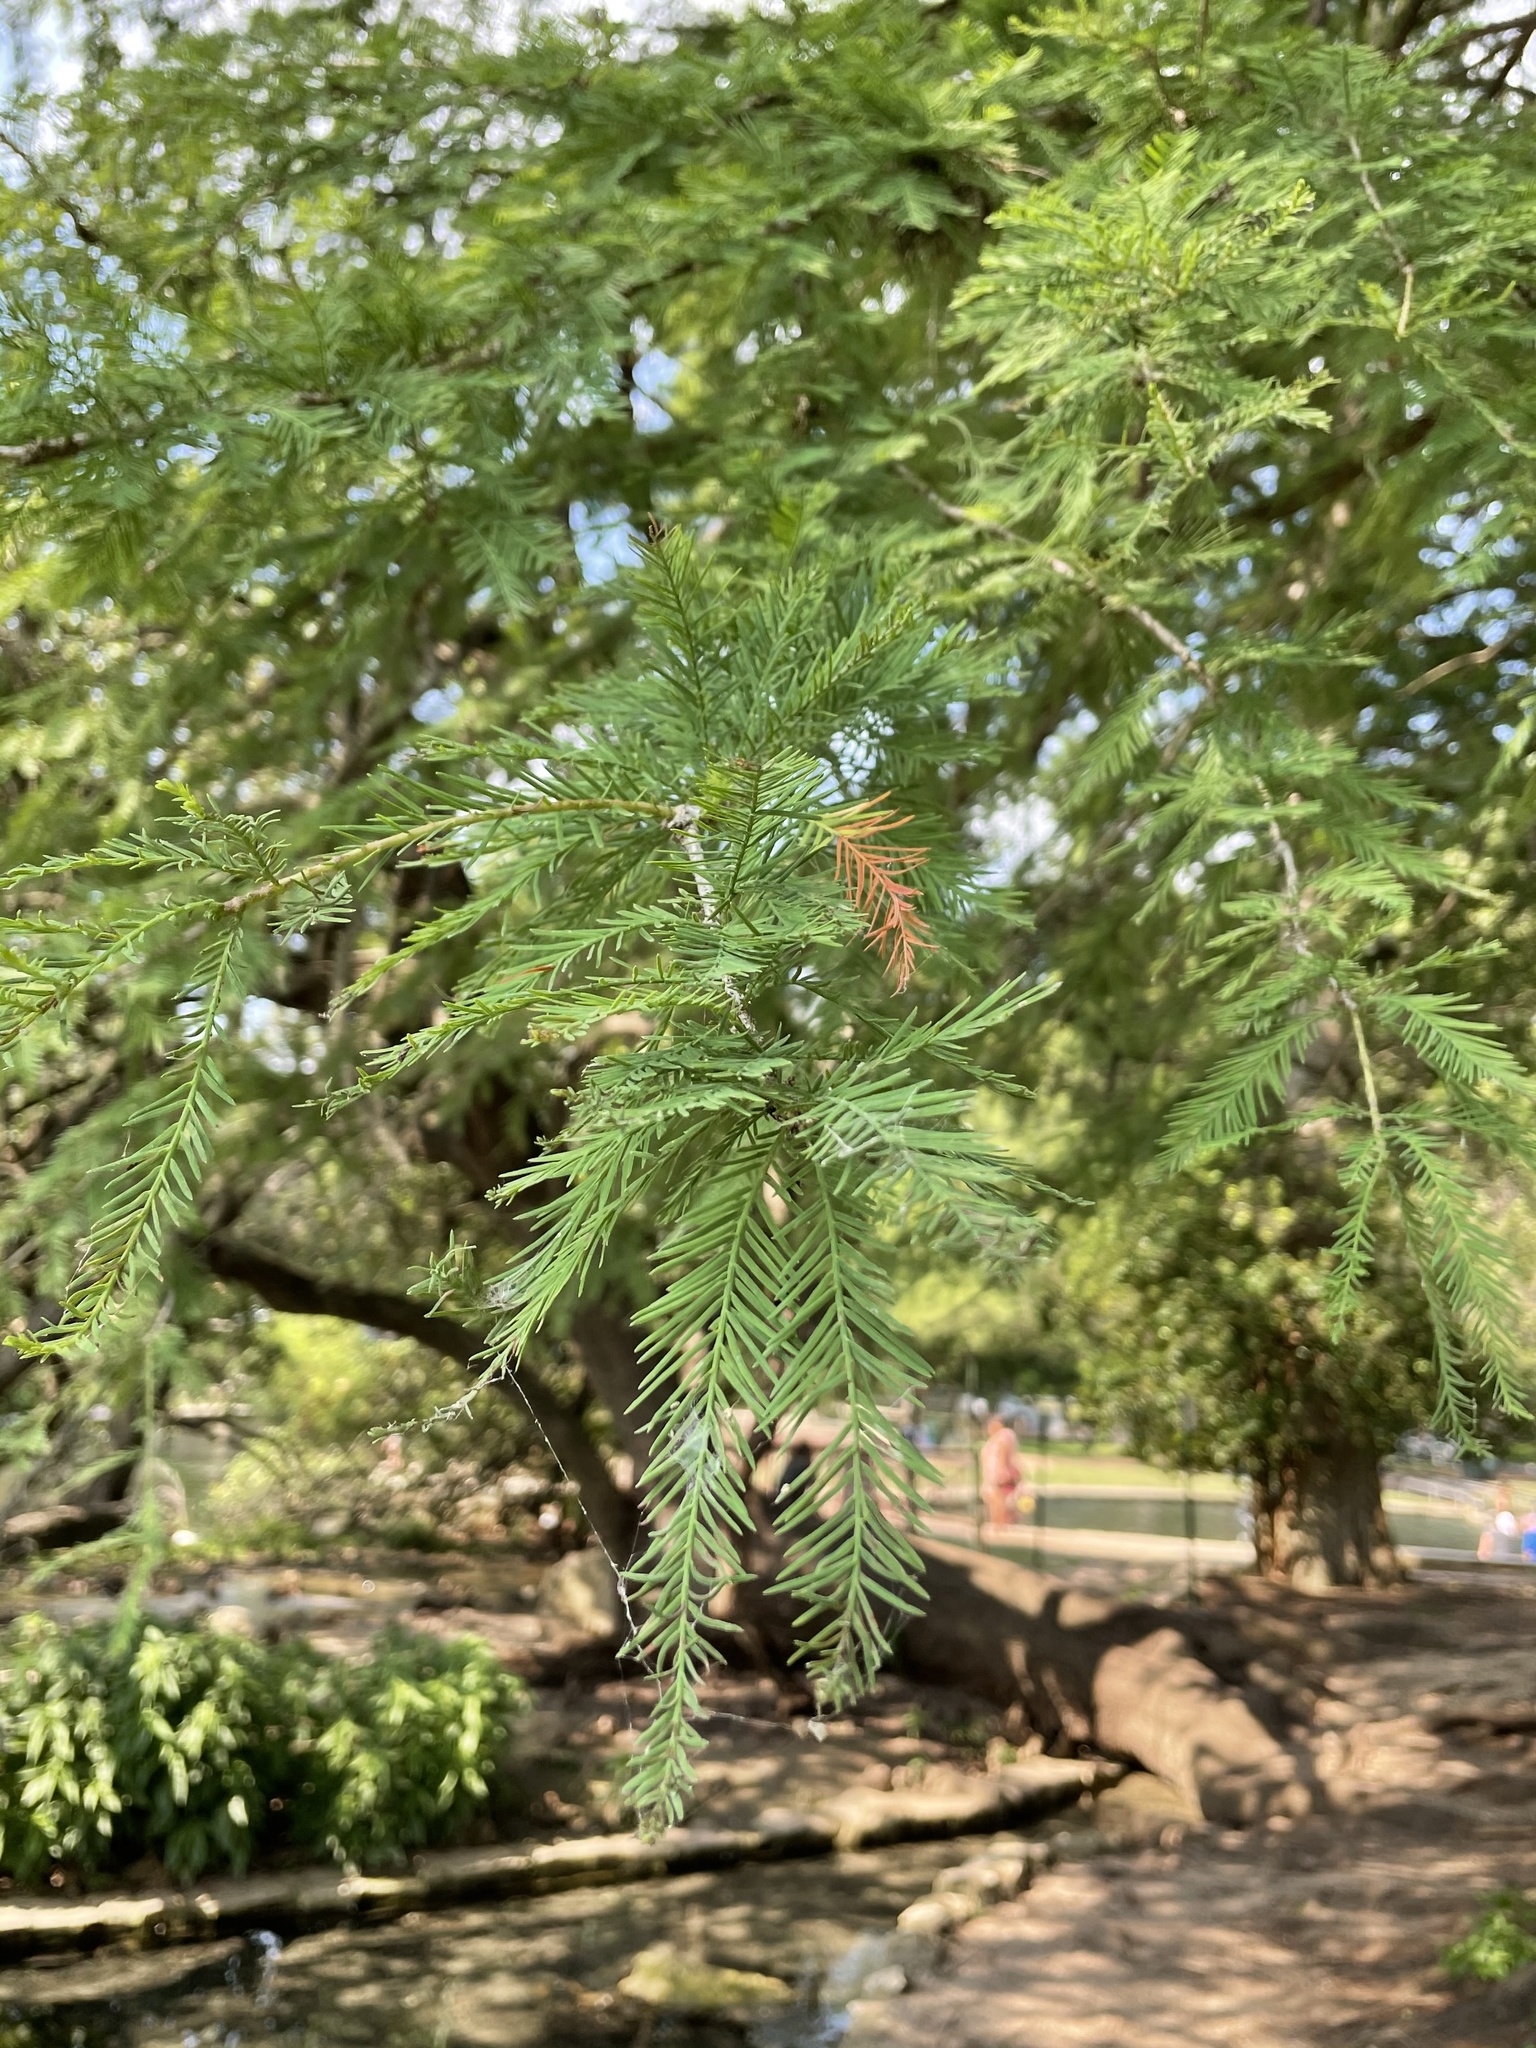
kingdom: Plantae
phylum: Tracheophyta
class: Pinopsida
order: Pinales
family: Cupressaceae
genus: Taxodium
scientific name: Taxodium distichum
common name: Bald cypress
